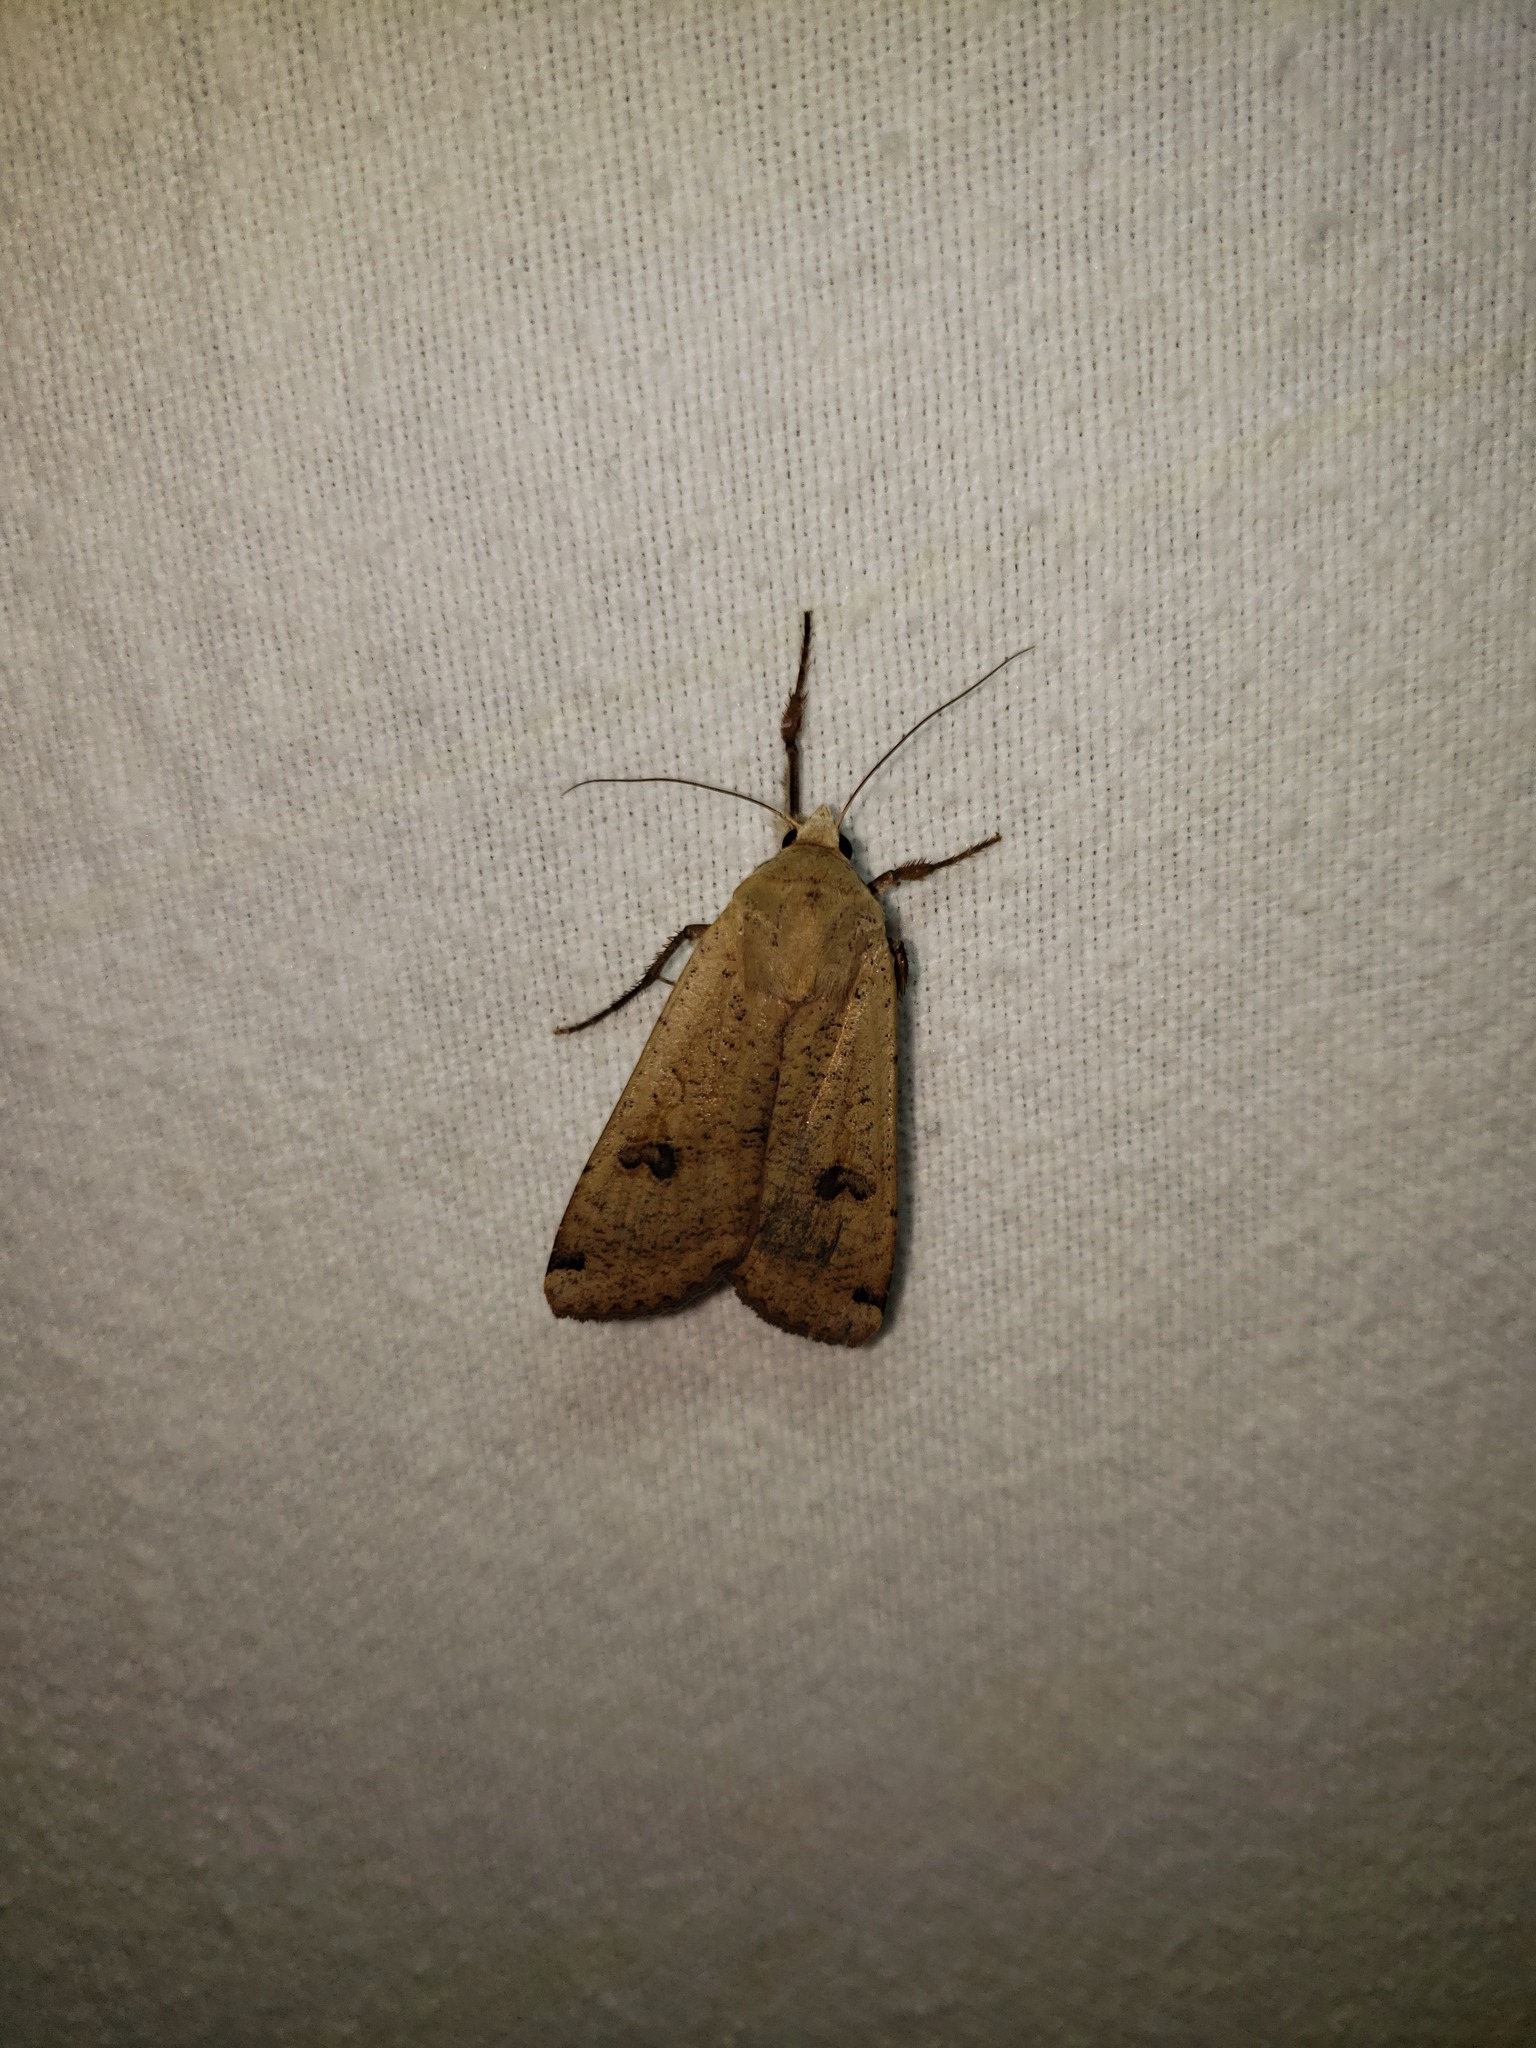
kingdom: Animalia
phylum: Arthropoda
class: Insecta
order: Lepidoptera
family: Noctuidae
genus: Noctua
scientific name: Noctua pronuba
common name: Large yellow underwing
